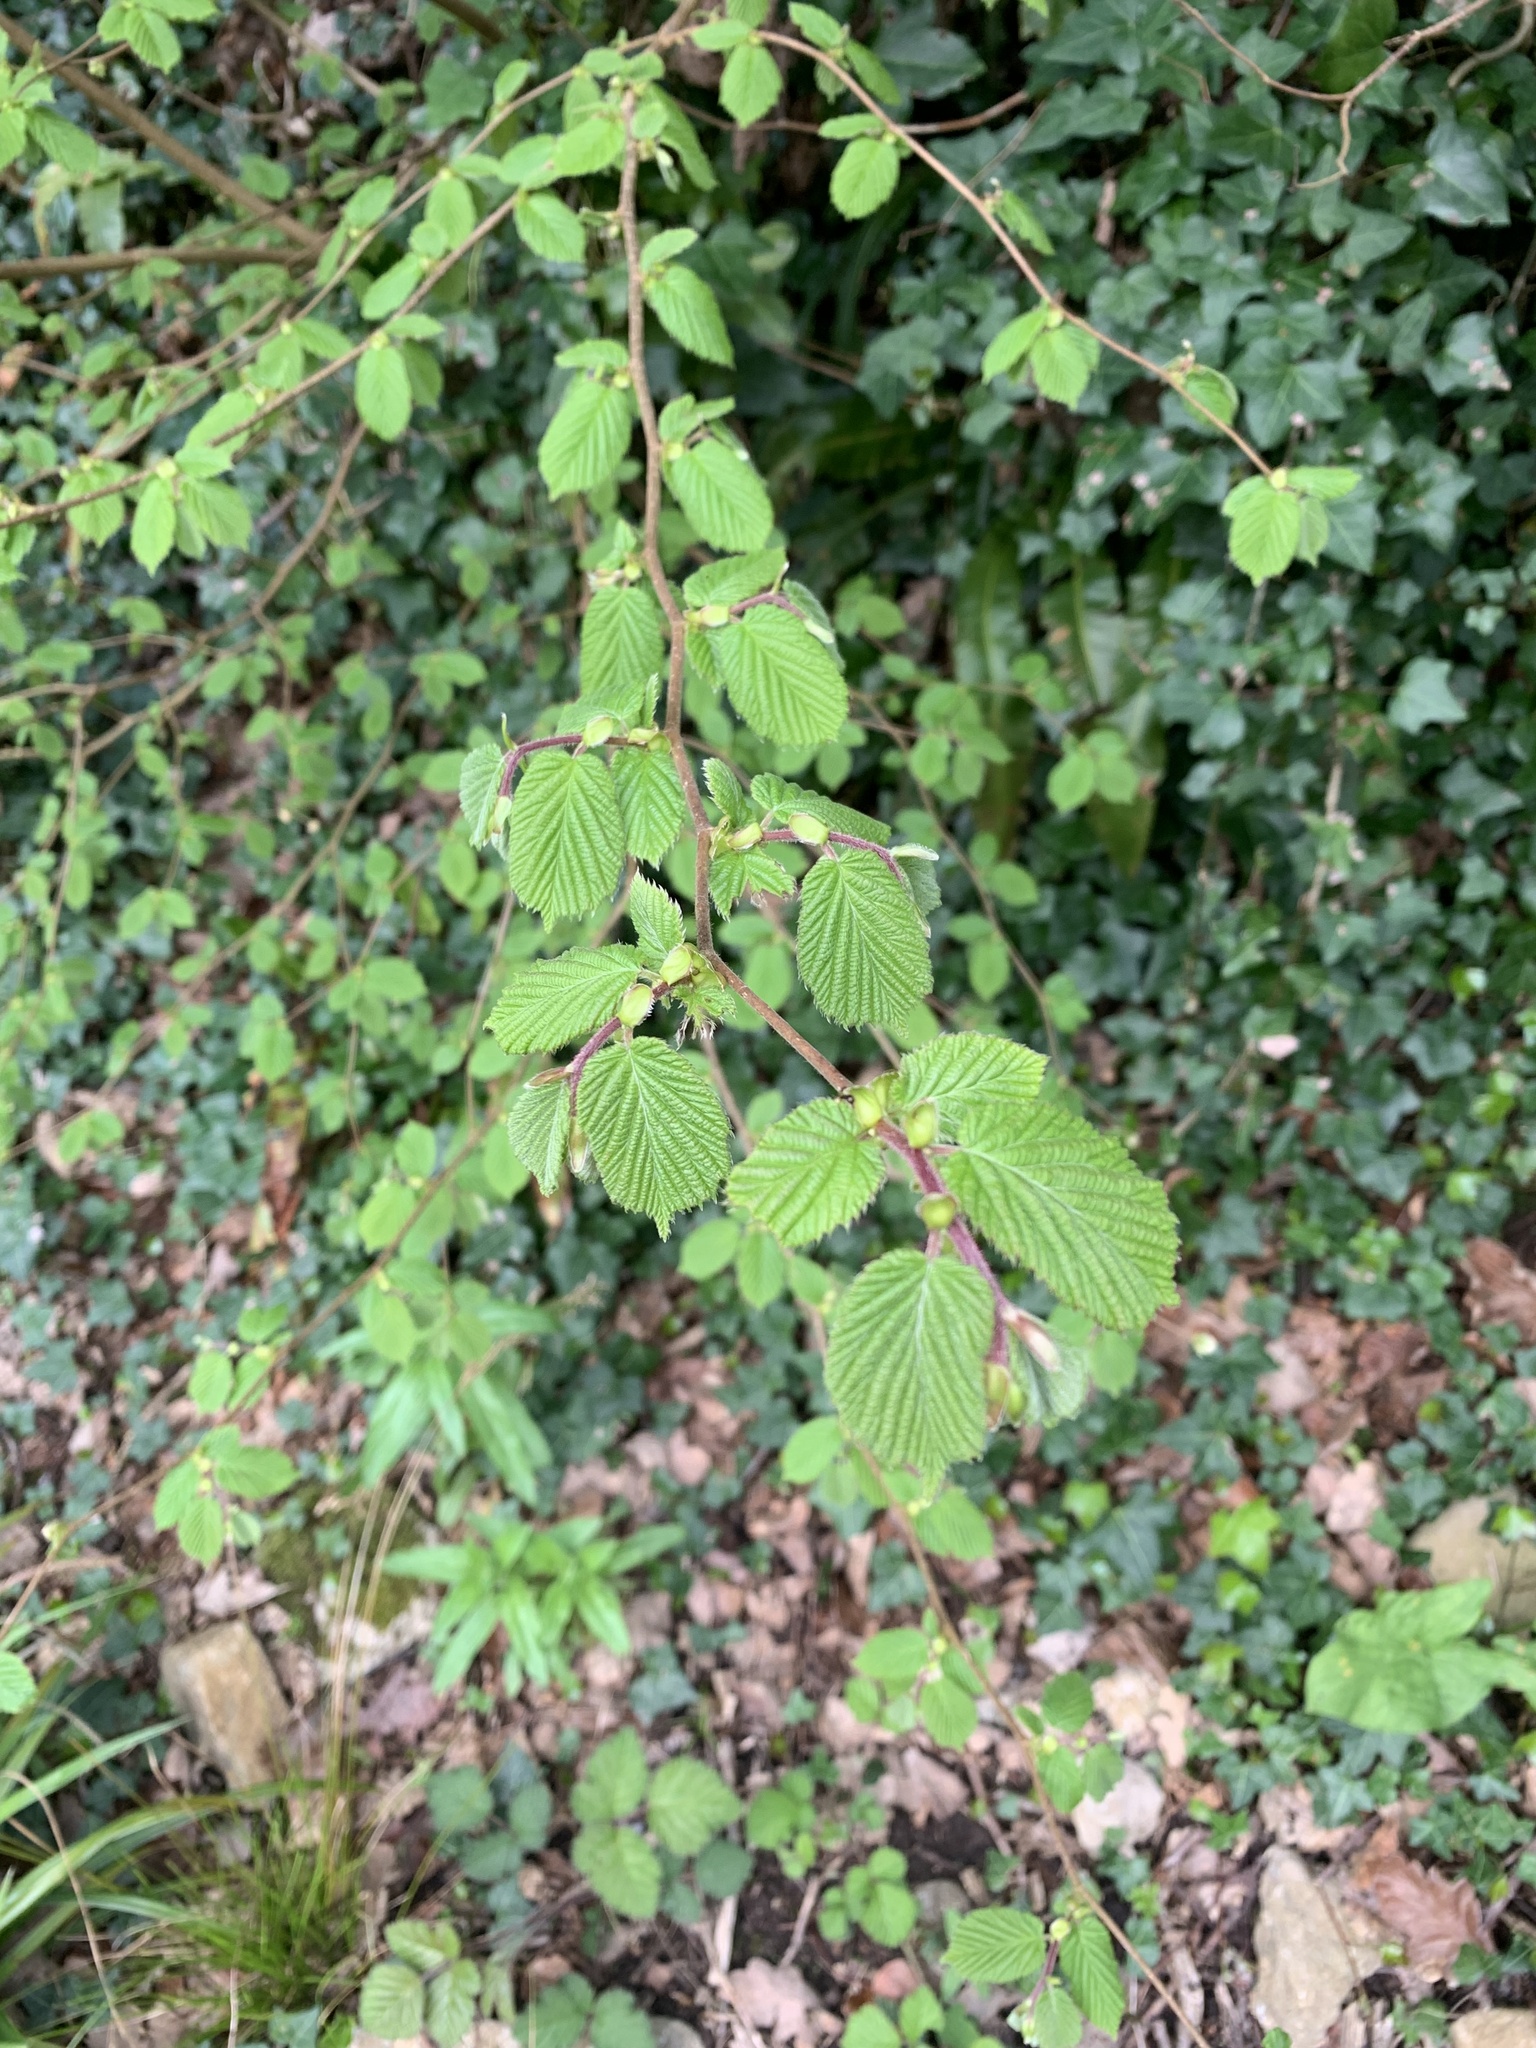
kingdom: Plantae
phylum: Tracheophyta
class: Magnoliopsida
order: Fagales
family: Betulaceae
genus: Corylus
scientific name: Corylus avellana
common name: European hazel
